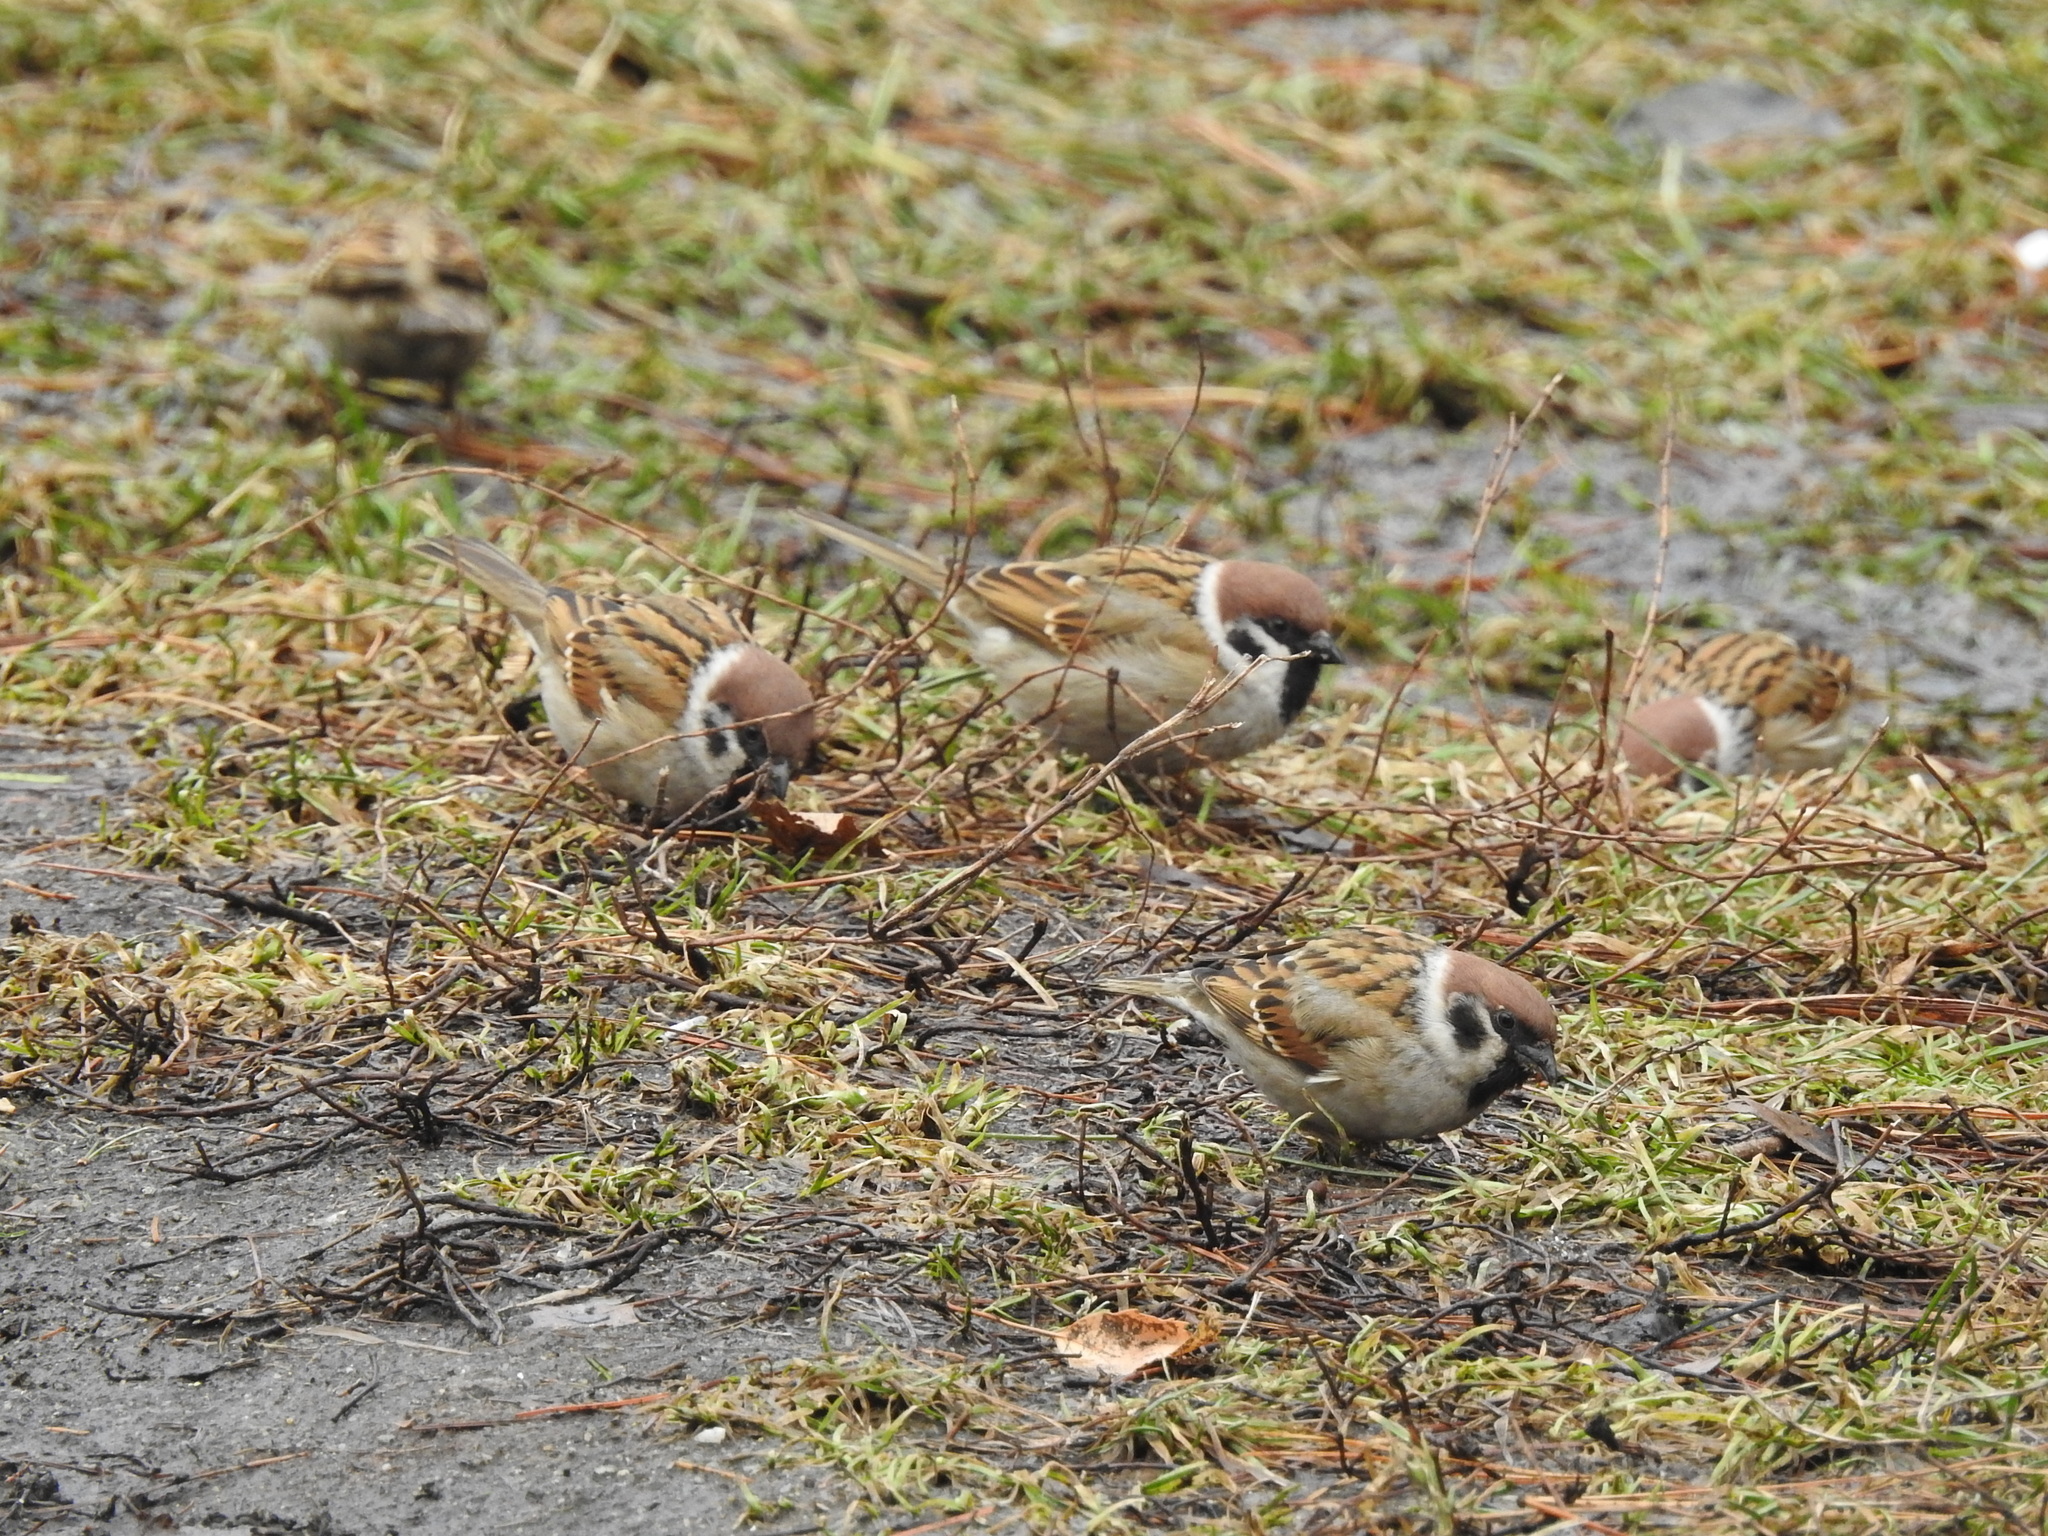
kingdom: Animalia
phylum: Chordata
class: Aves
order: Passeriformes
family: Passeridae
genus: Passer
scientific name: Passer montanus
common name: Eurasian tree sparrow
